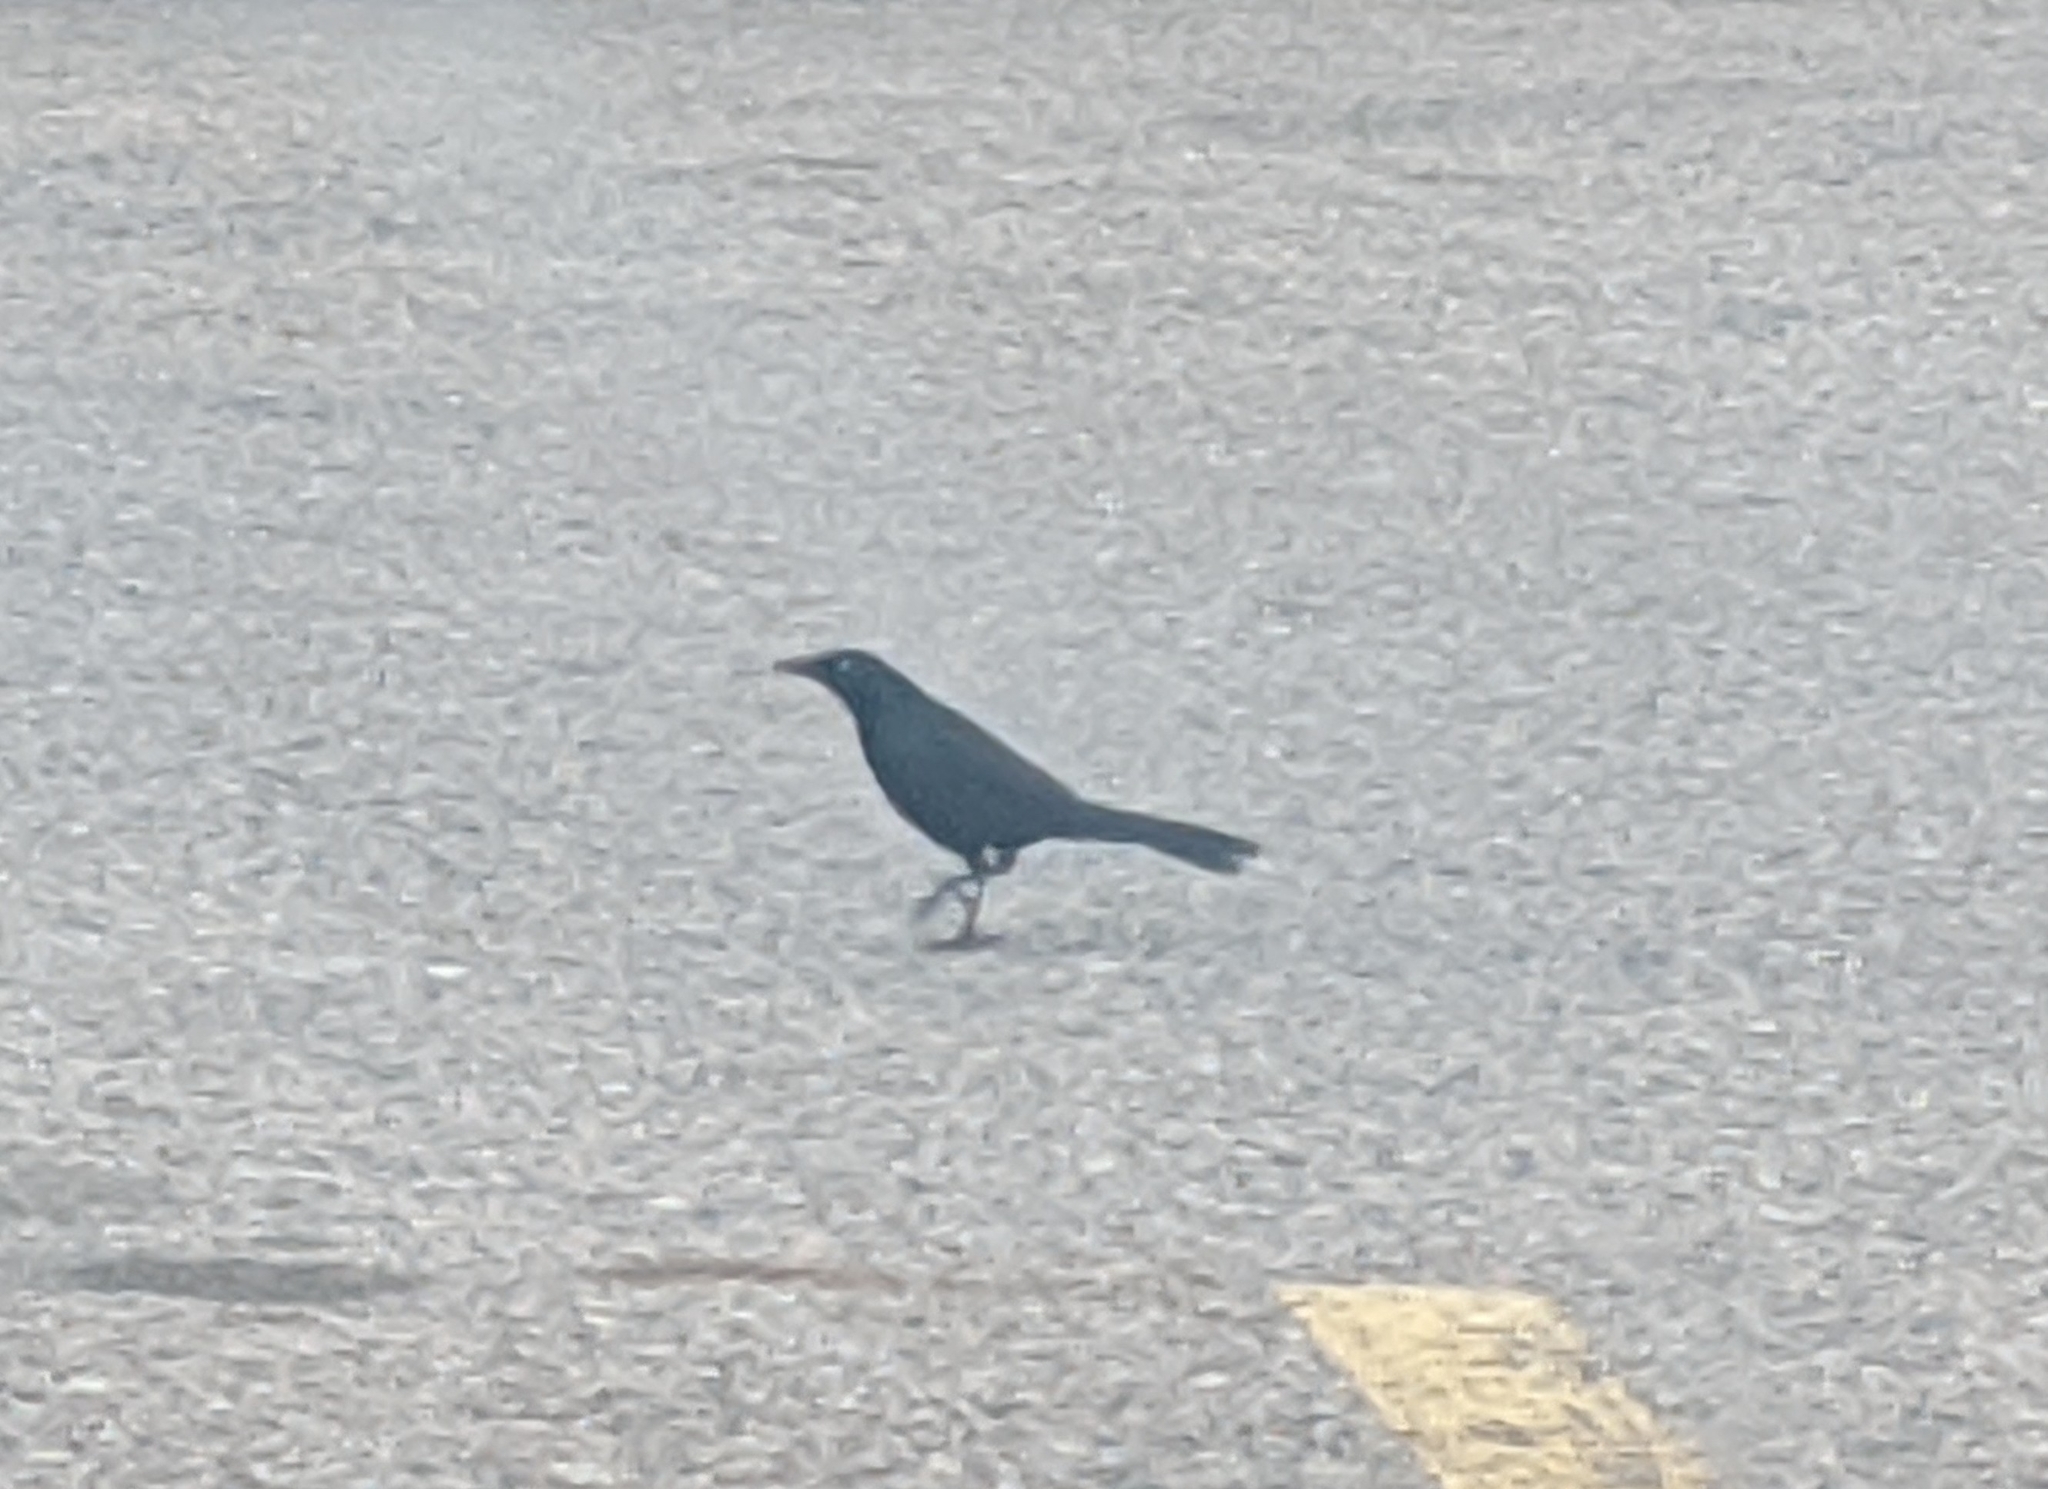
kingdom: Animalia
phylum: Chordata
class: Aves
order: Passeriformes
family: Icteridae
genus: Quiscalus
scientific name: Quiscalus quiscula
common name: Common grackle
